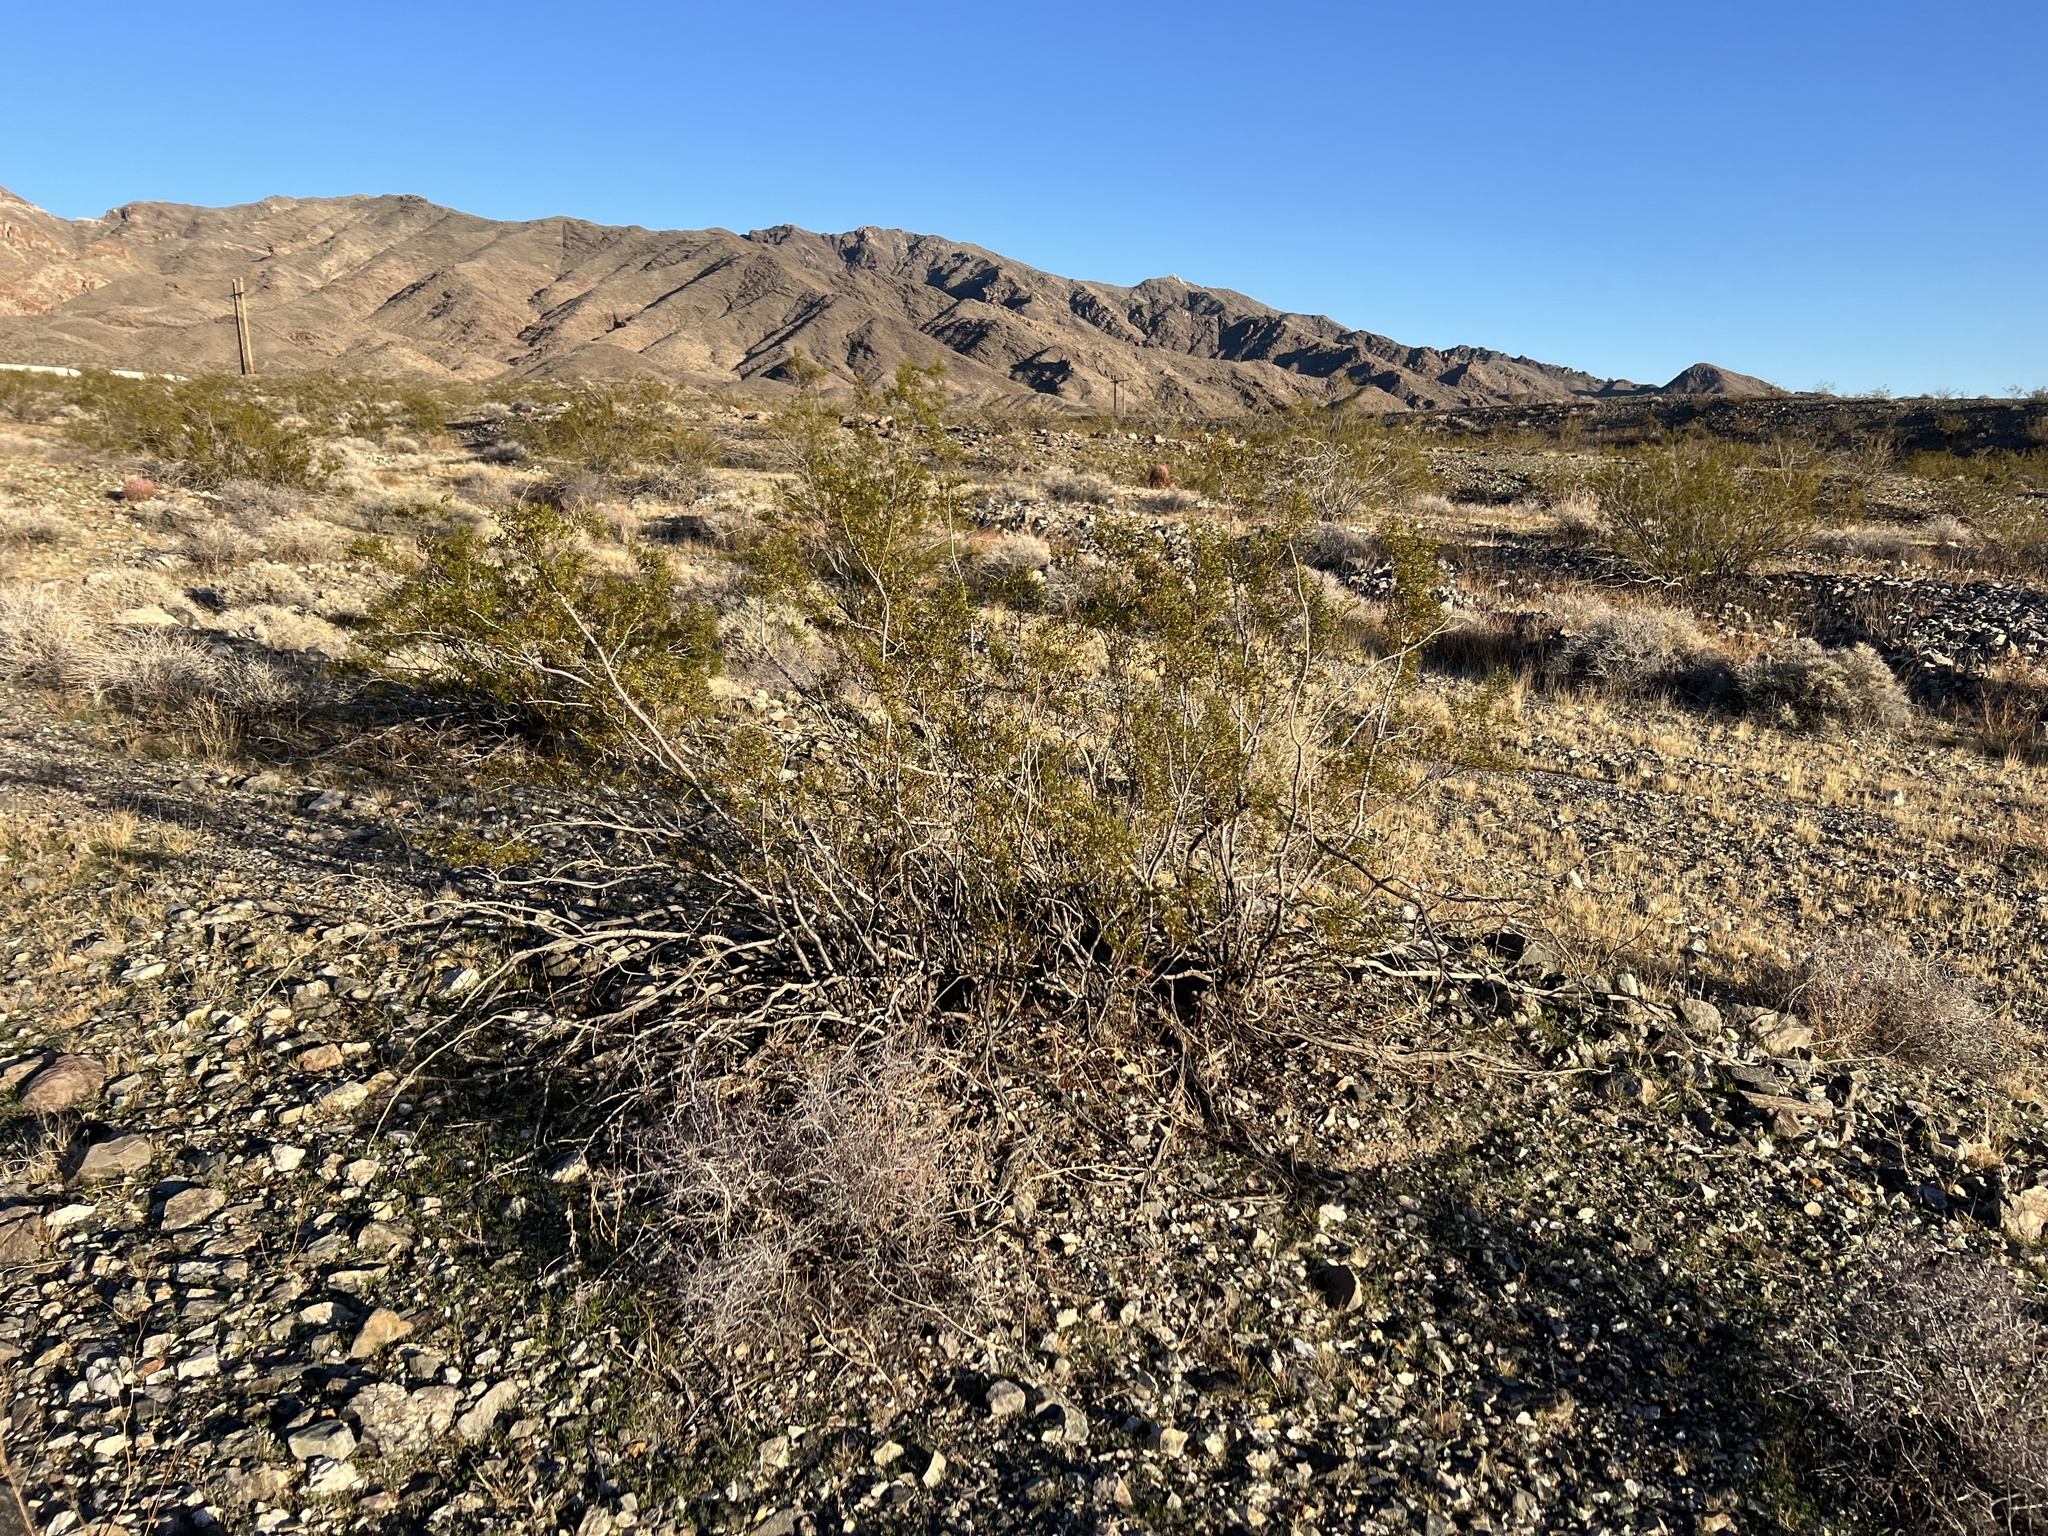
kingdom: Plantae
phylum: Tracheophyta
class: Magnoliopsida
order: Zygophyllales
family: Zygophyllaceae
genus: Larrea
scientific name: Larrea tridentata
